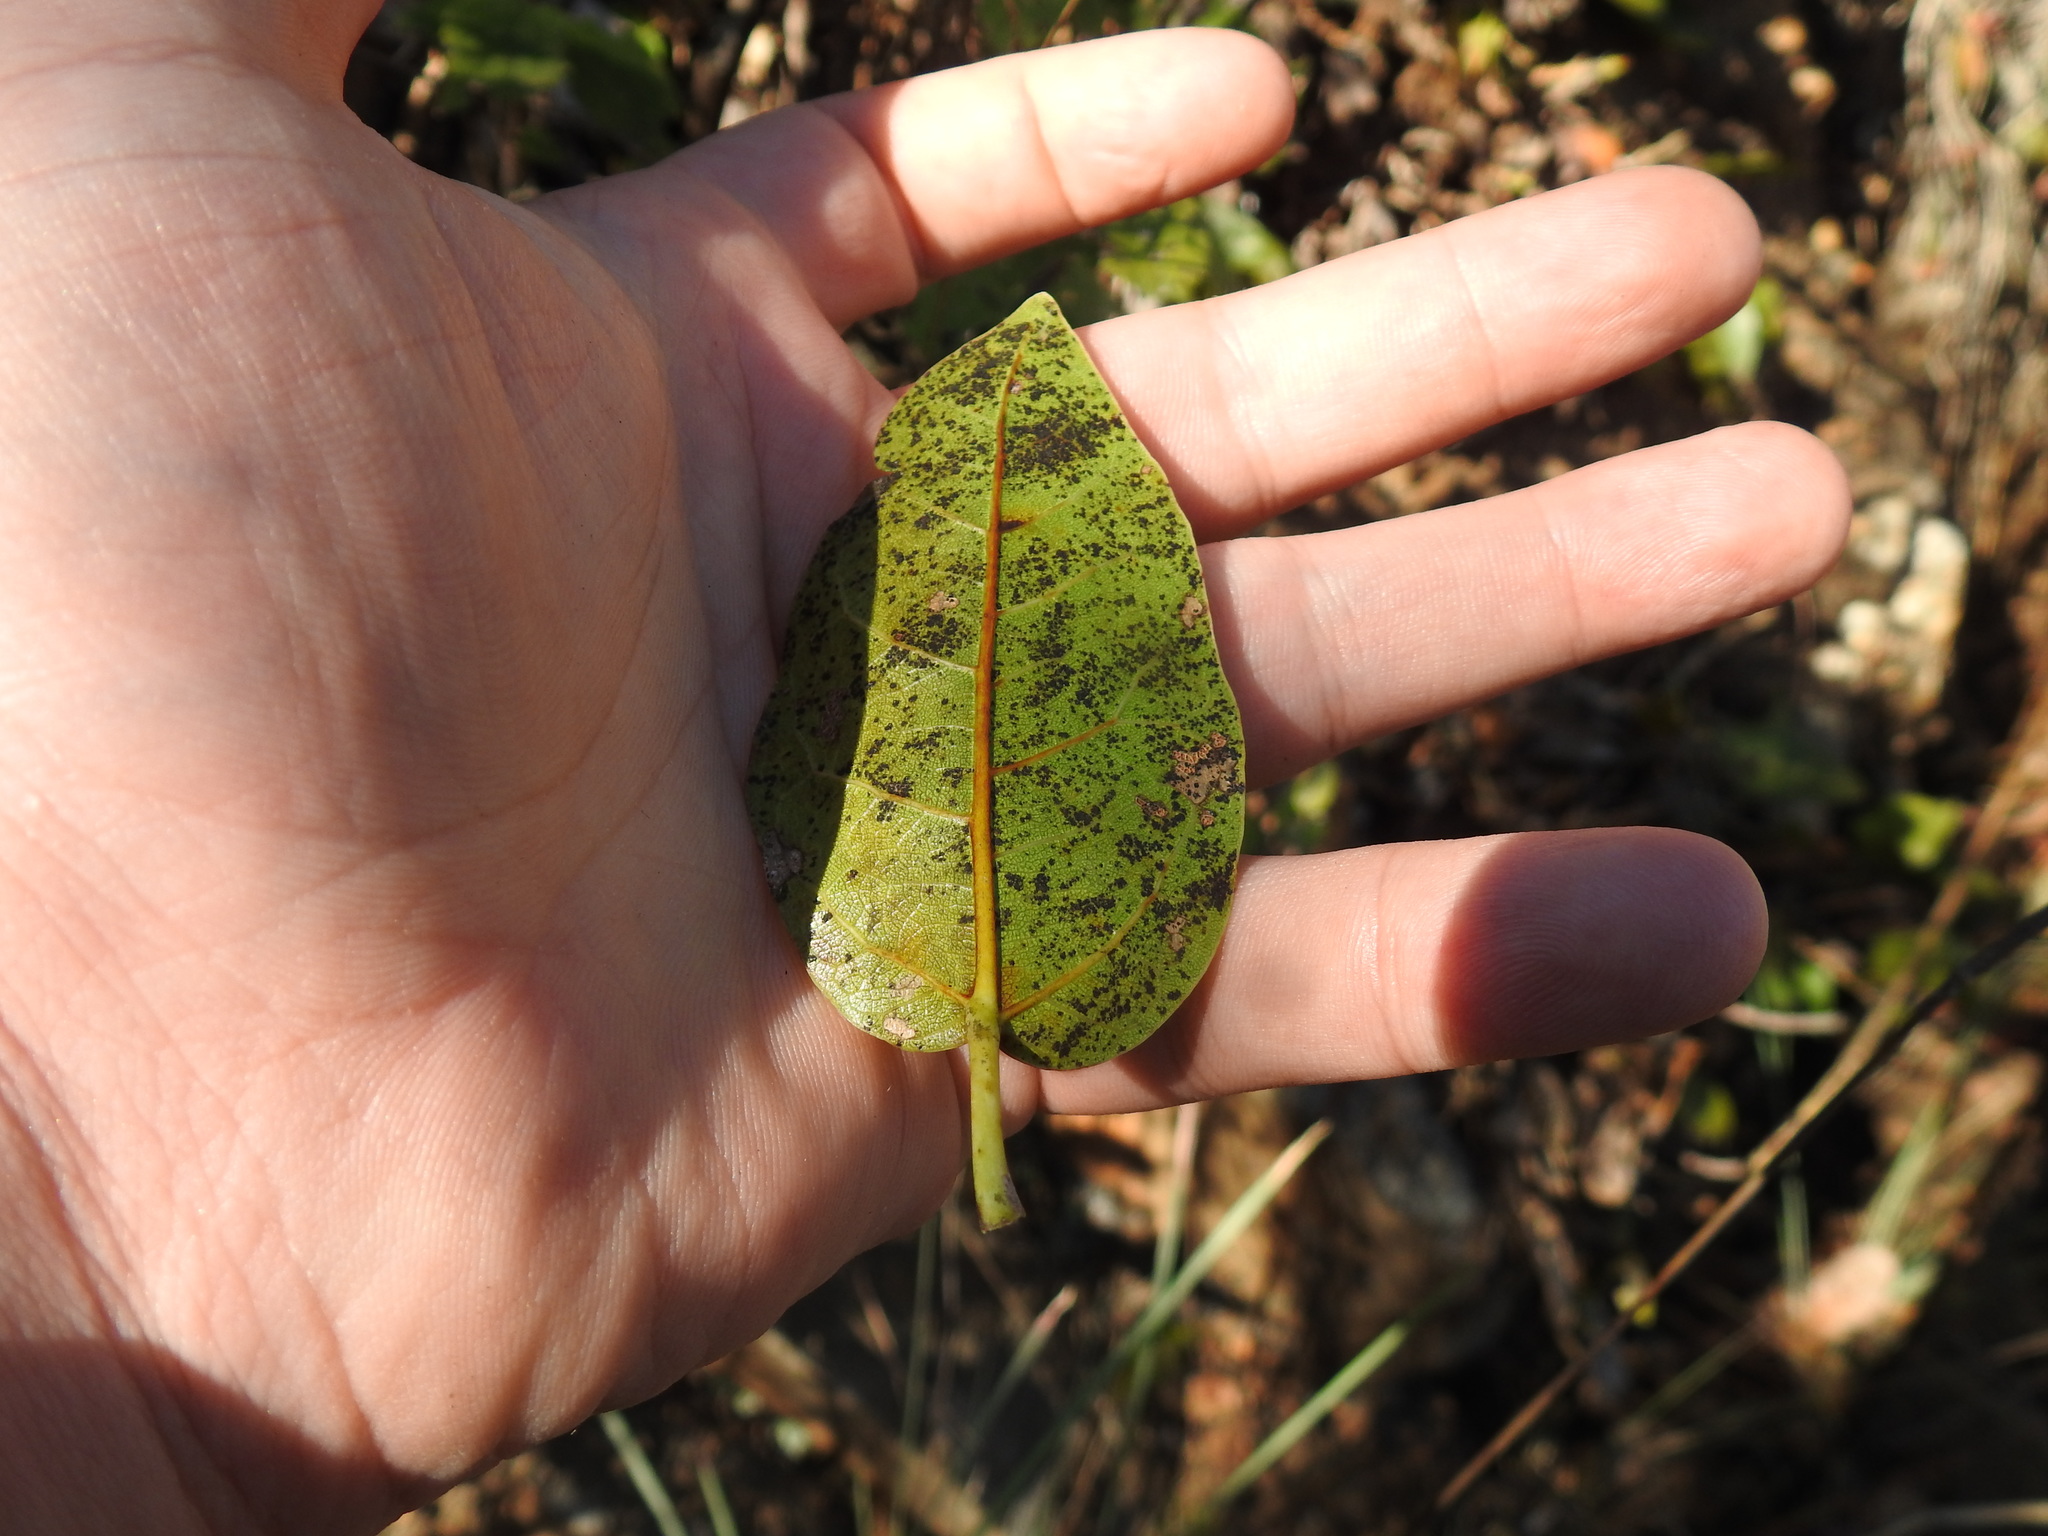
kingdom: Plantae
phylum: Tracheophyta
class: Magnoliopsida
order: Rosales
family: Moraceae
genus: Ficus
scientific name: Ficus ingens
